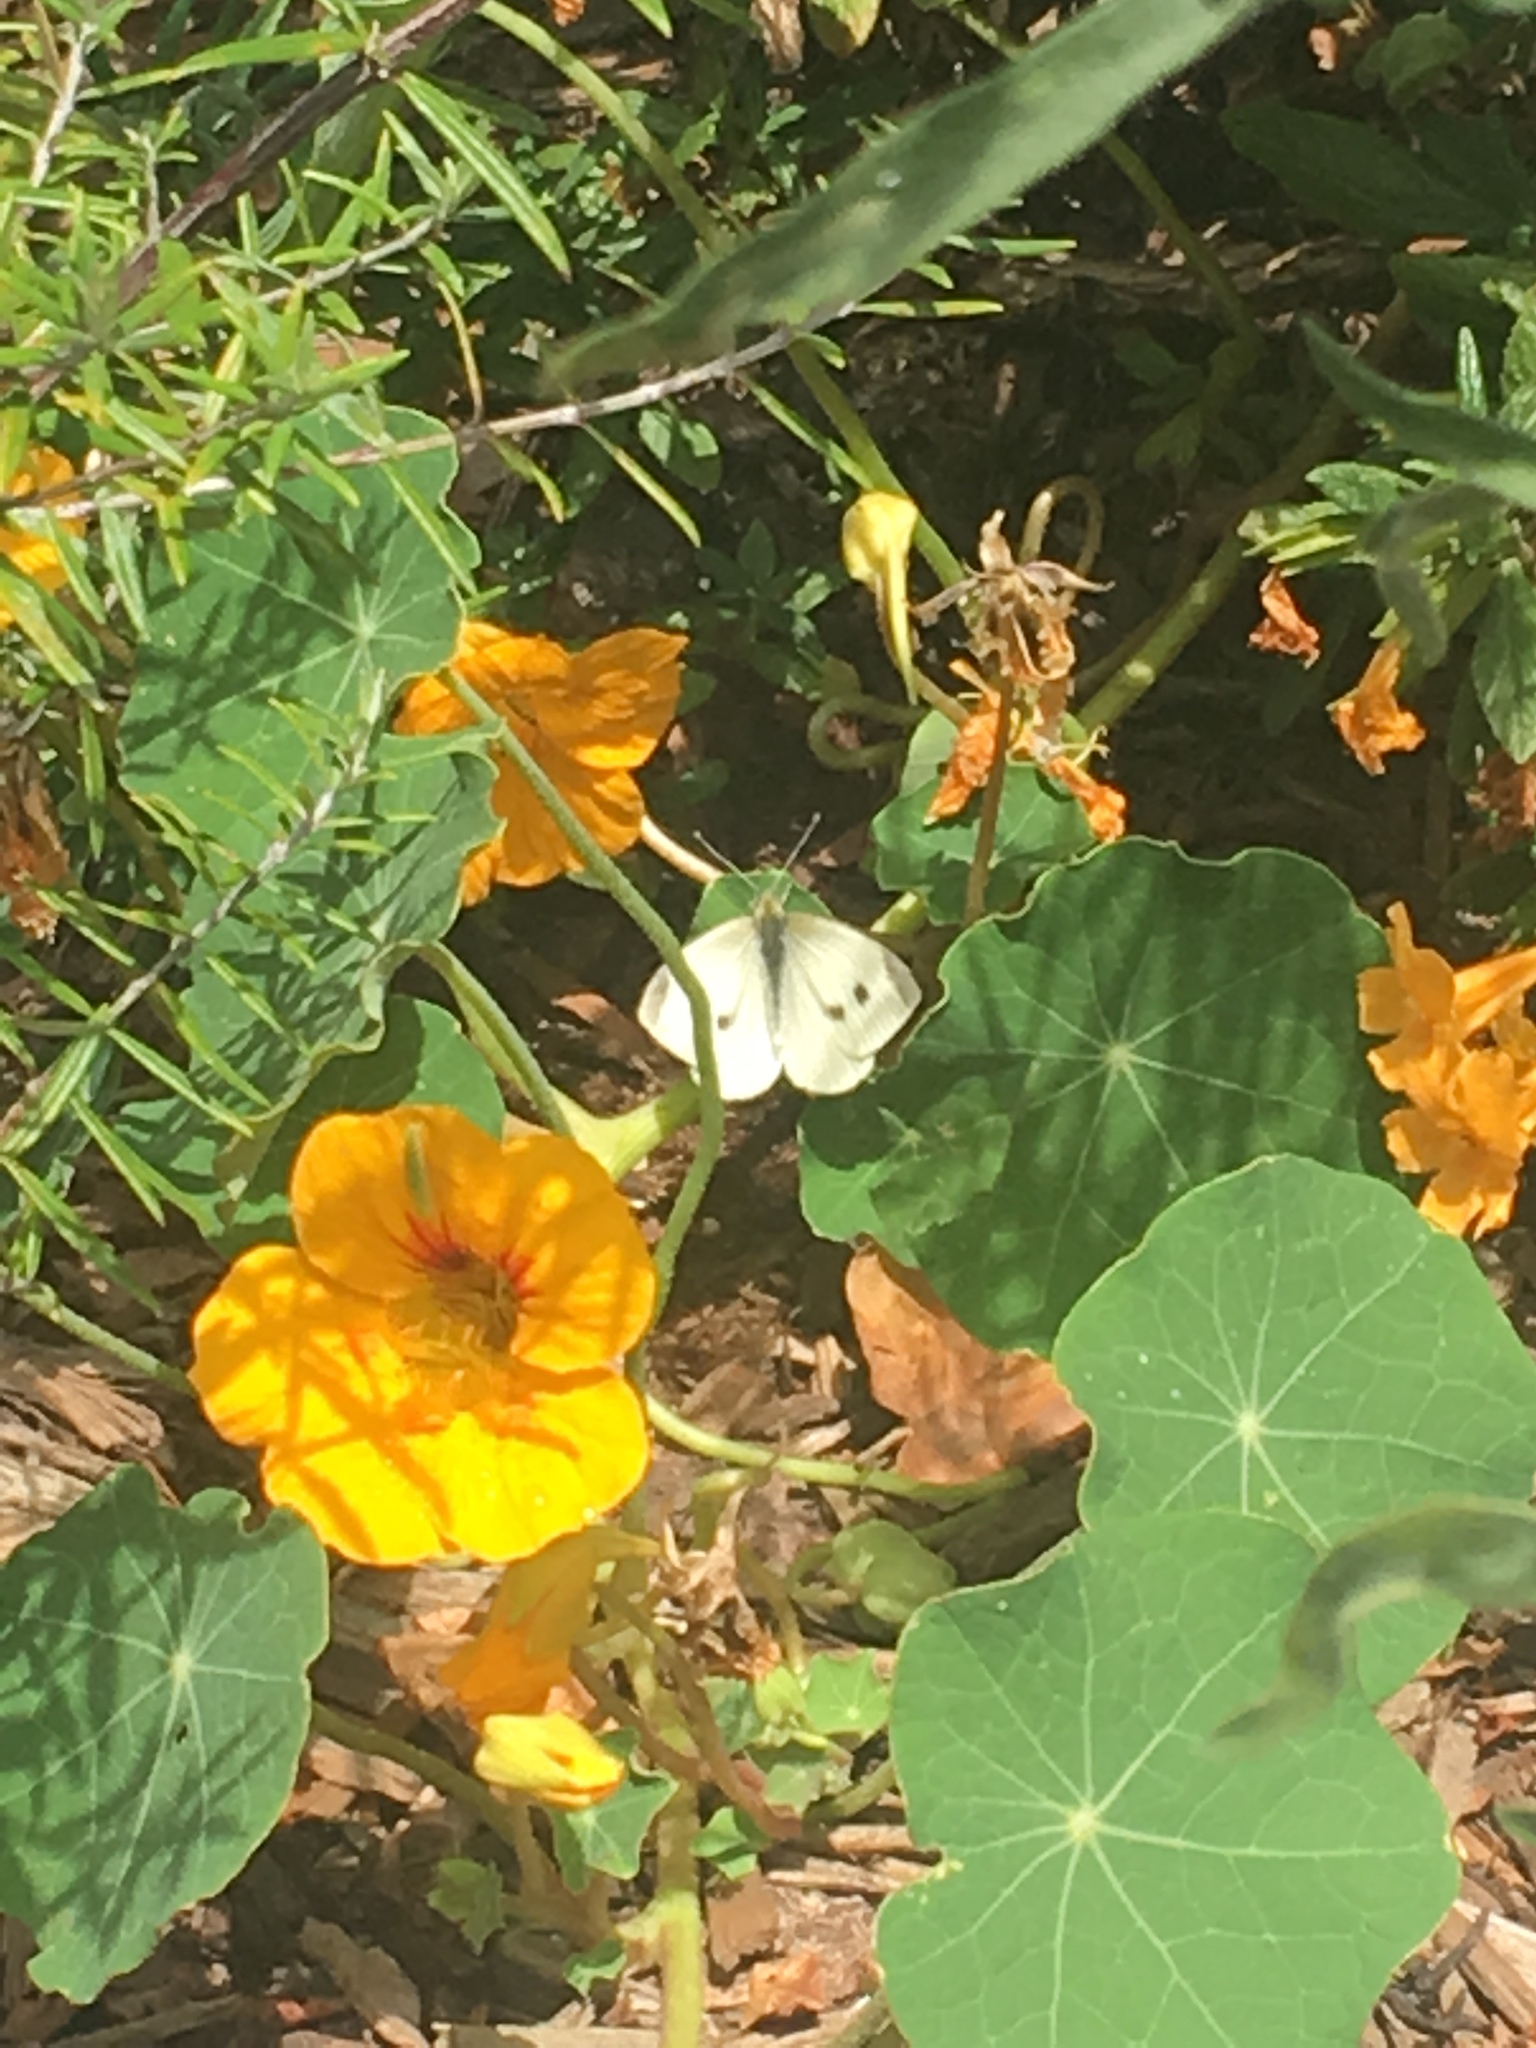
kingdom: Animalia
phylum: Arthropoda
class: Insecta
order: Lepidoptera
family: Pieridae
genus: Pieris
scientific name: Pieris rapae
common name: Small white
